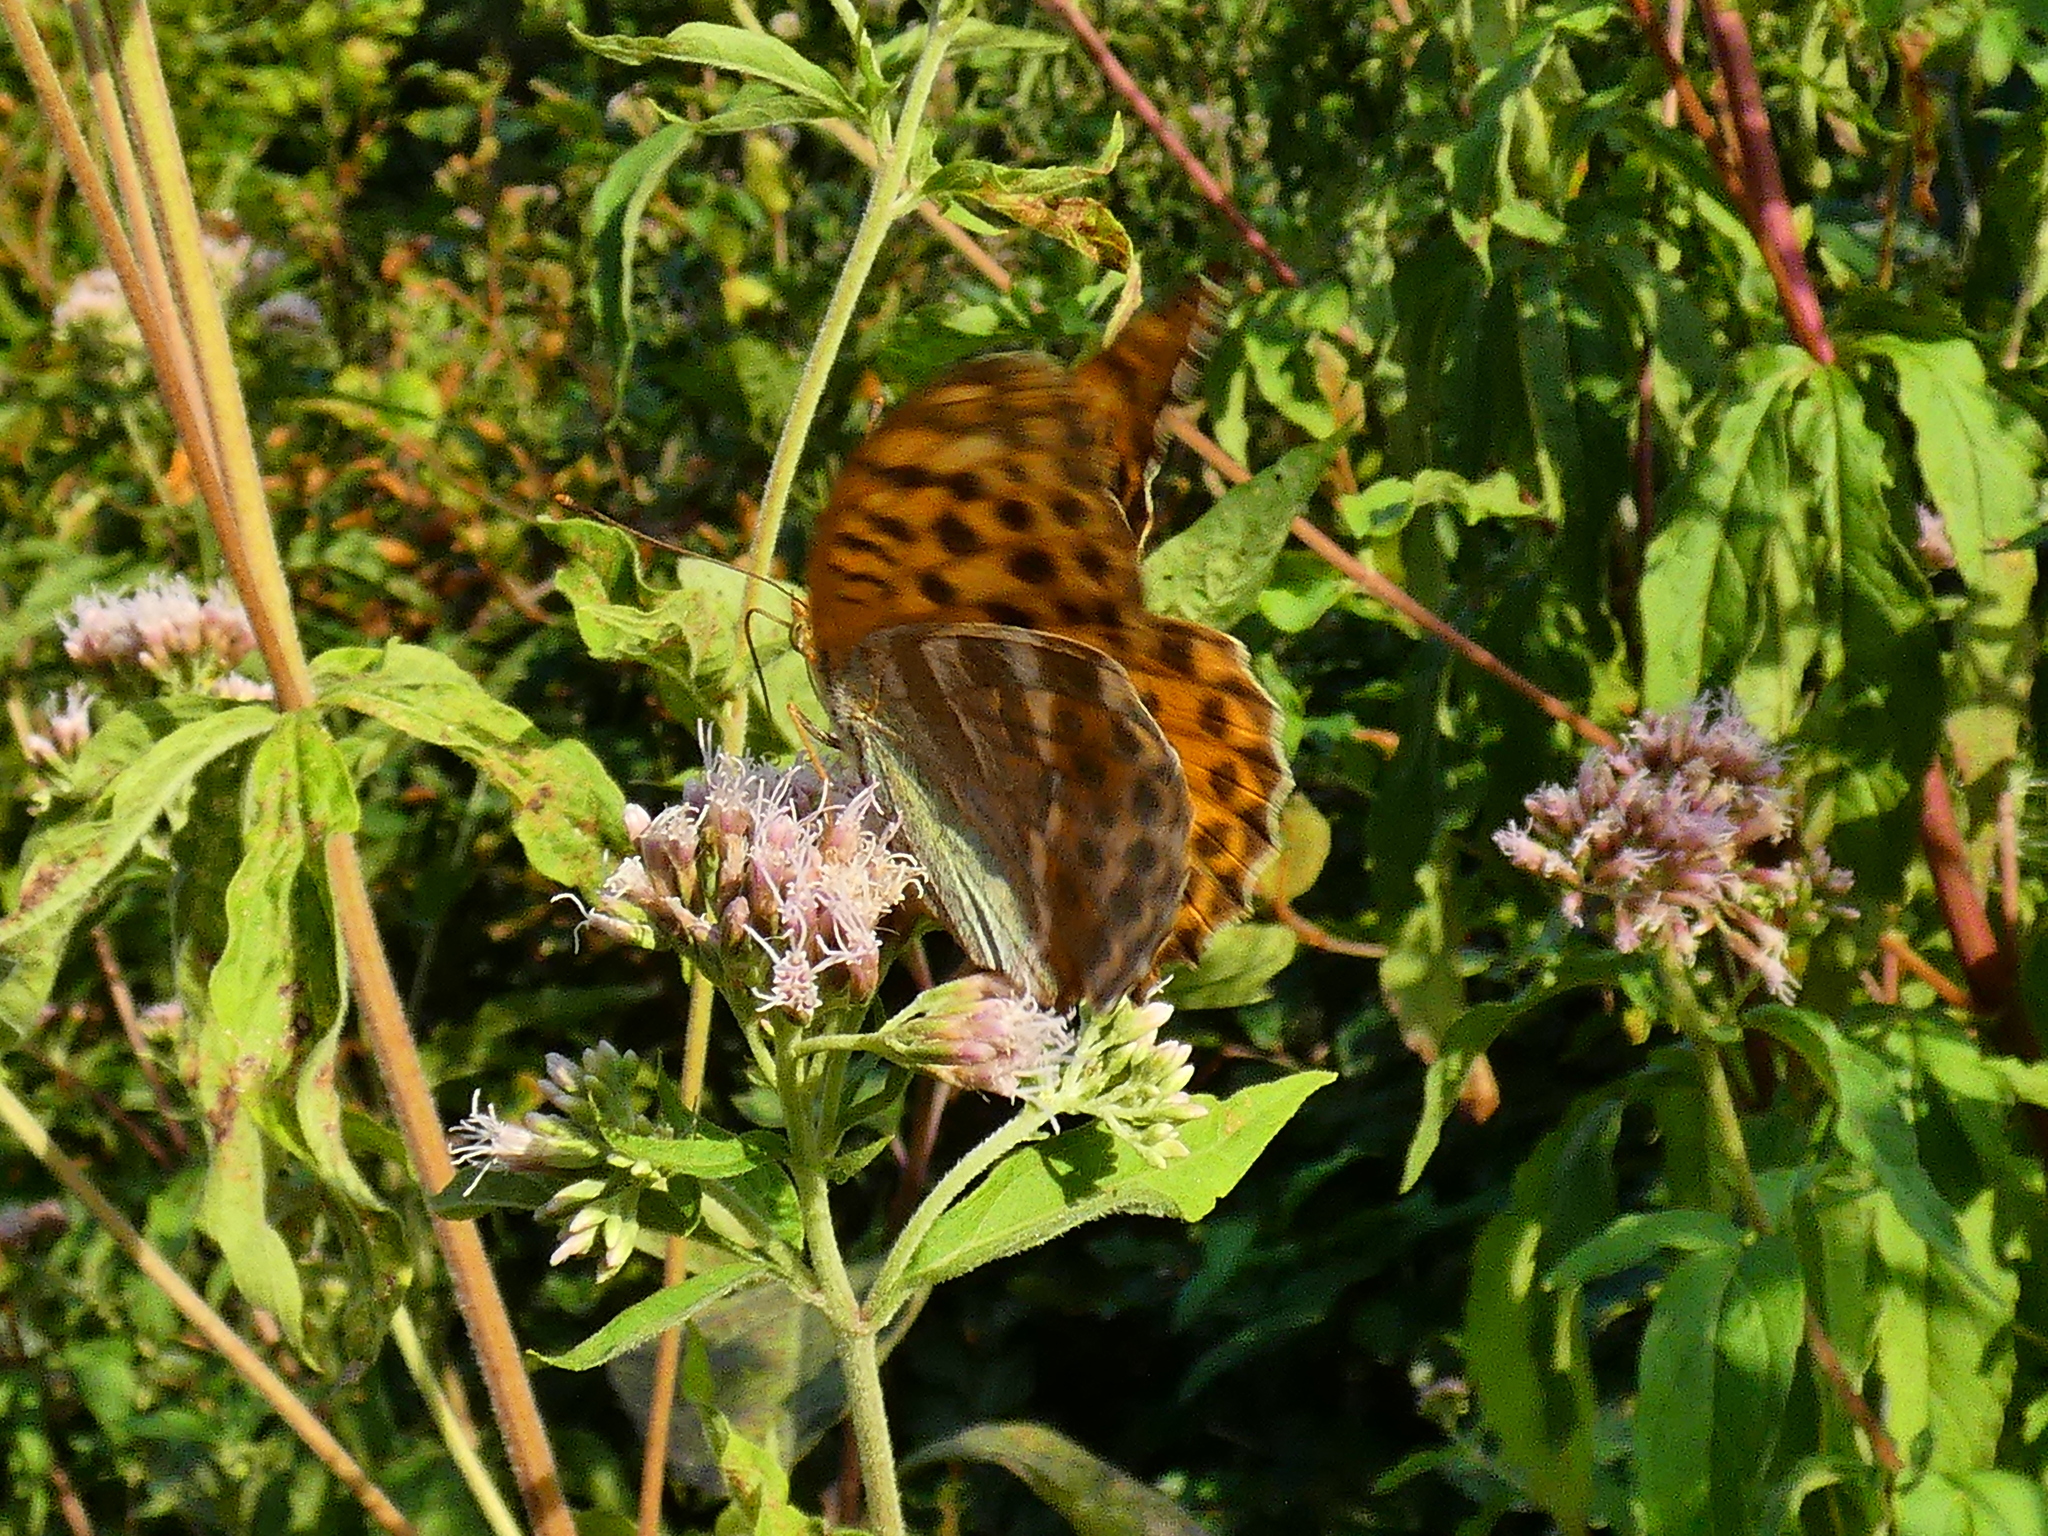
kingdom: Animalia
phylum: Arthropoda
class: Insecta
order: Lepidoptera
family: Nymphalidae
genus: Argynnis
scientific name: Argynnis paphia
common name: Silver-washed fritillary
